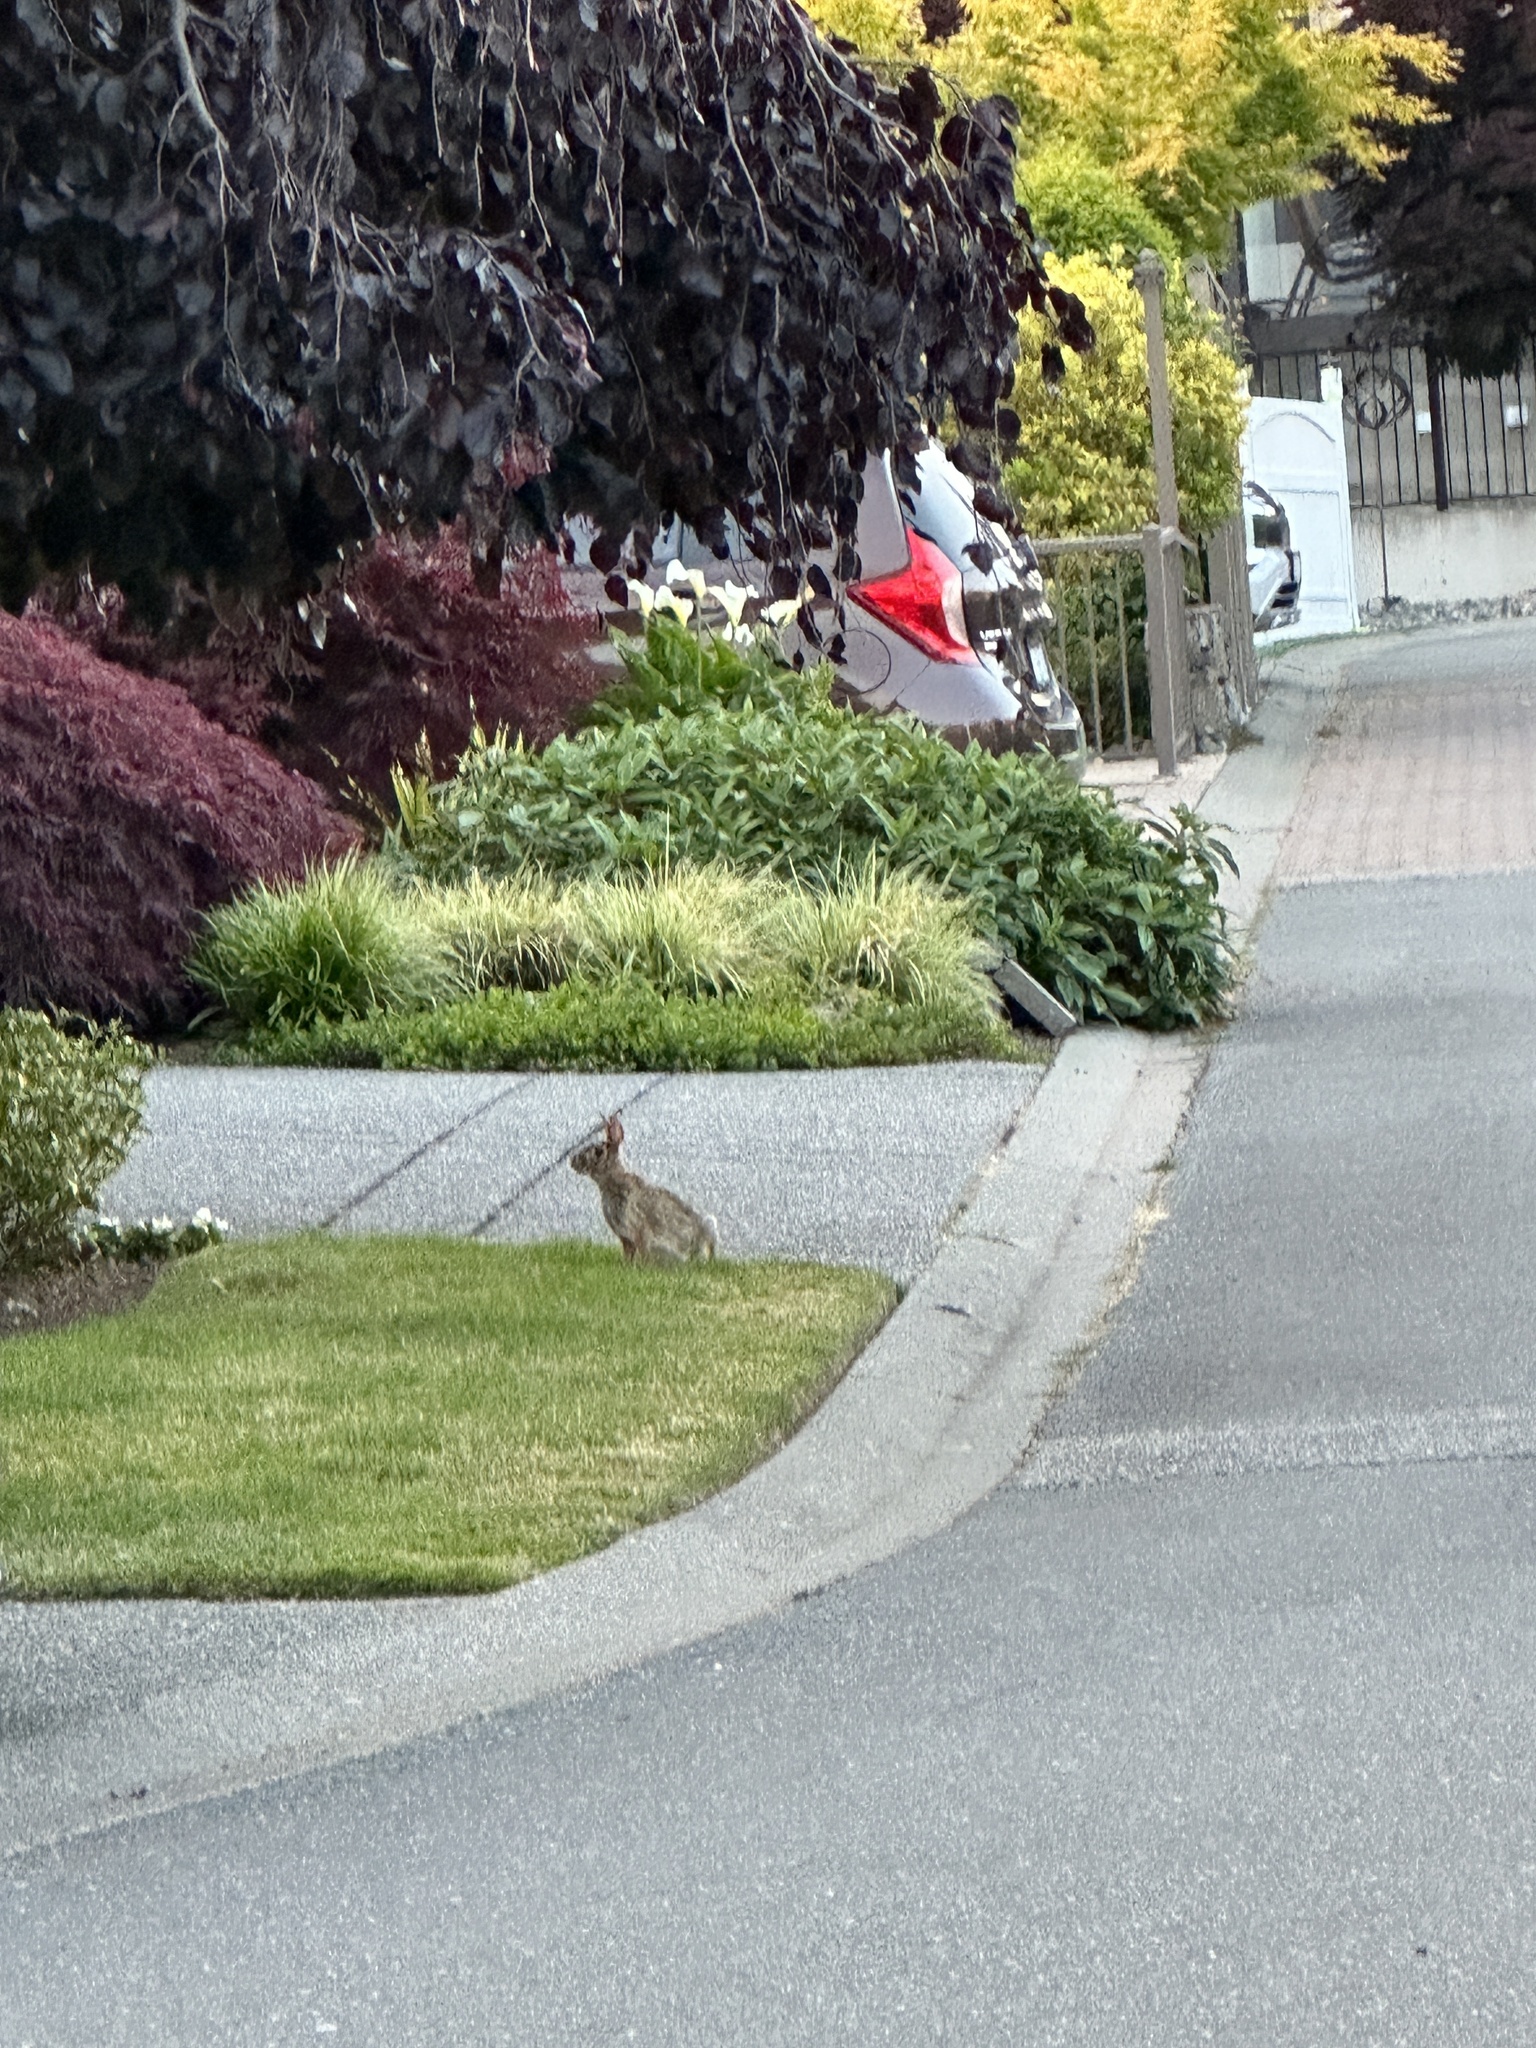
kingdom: Animalia
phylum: Chordata
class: Mammalia
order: Lagomorpha
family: Leporidae
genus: Sylvilagus
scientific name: Sylvilagus floridanus
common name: Eastern cottontail
